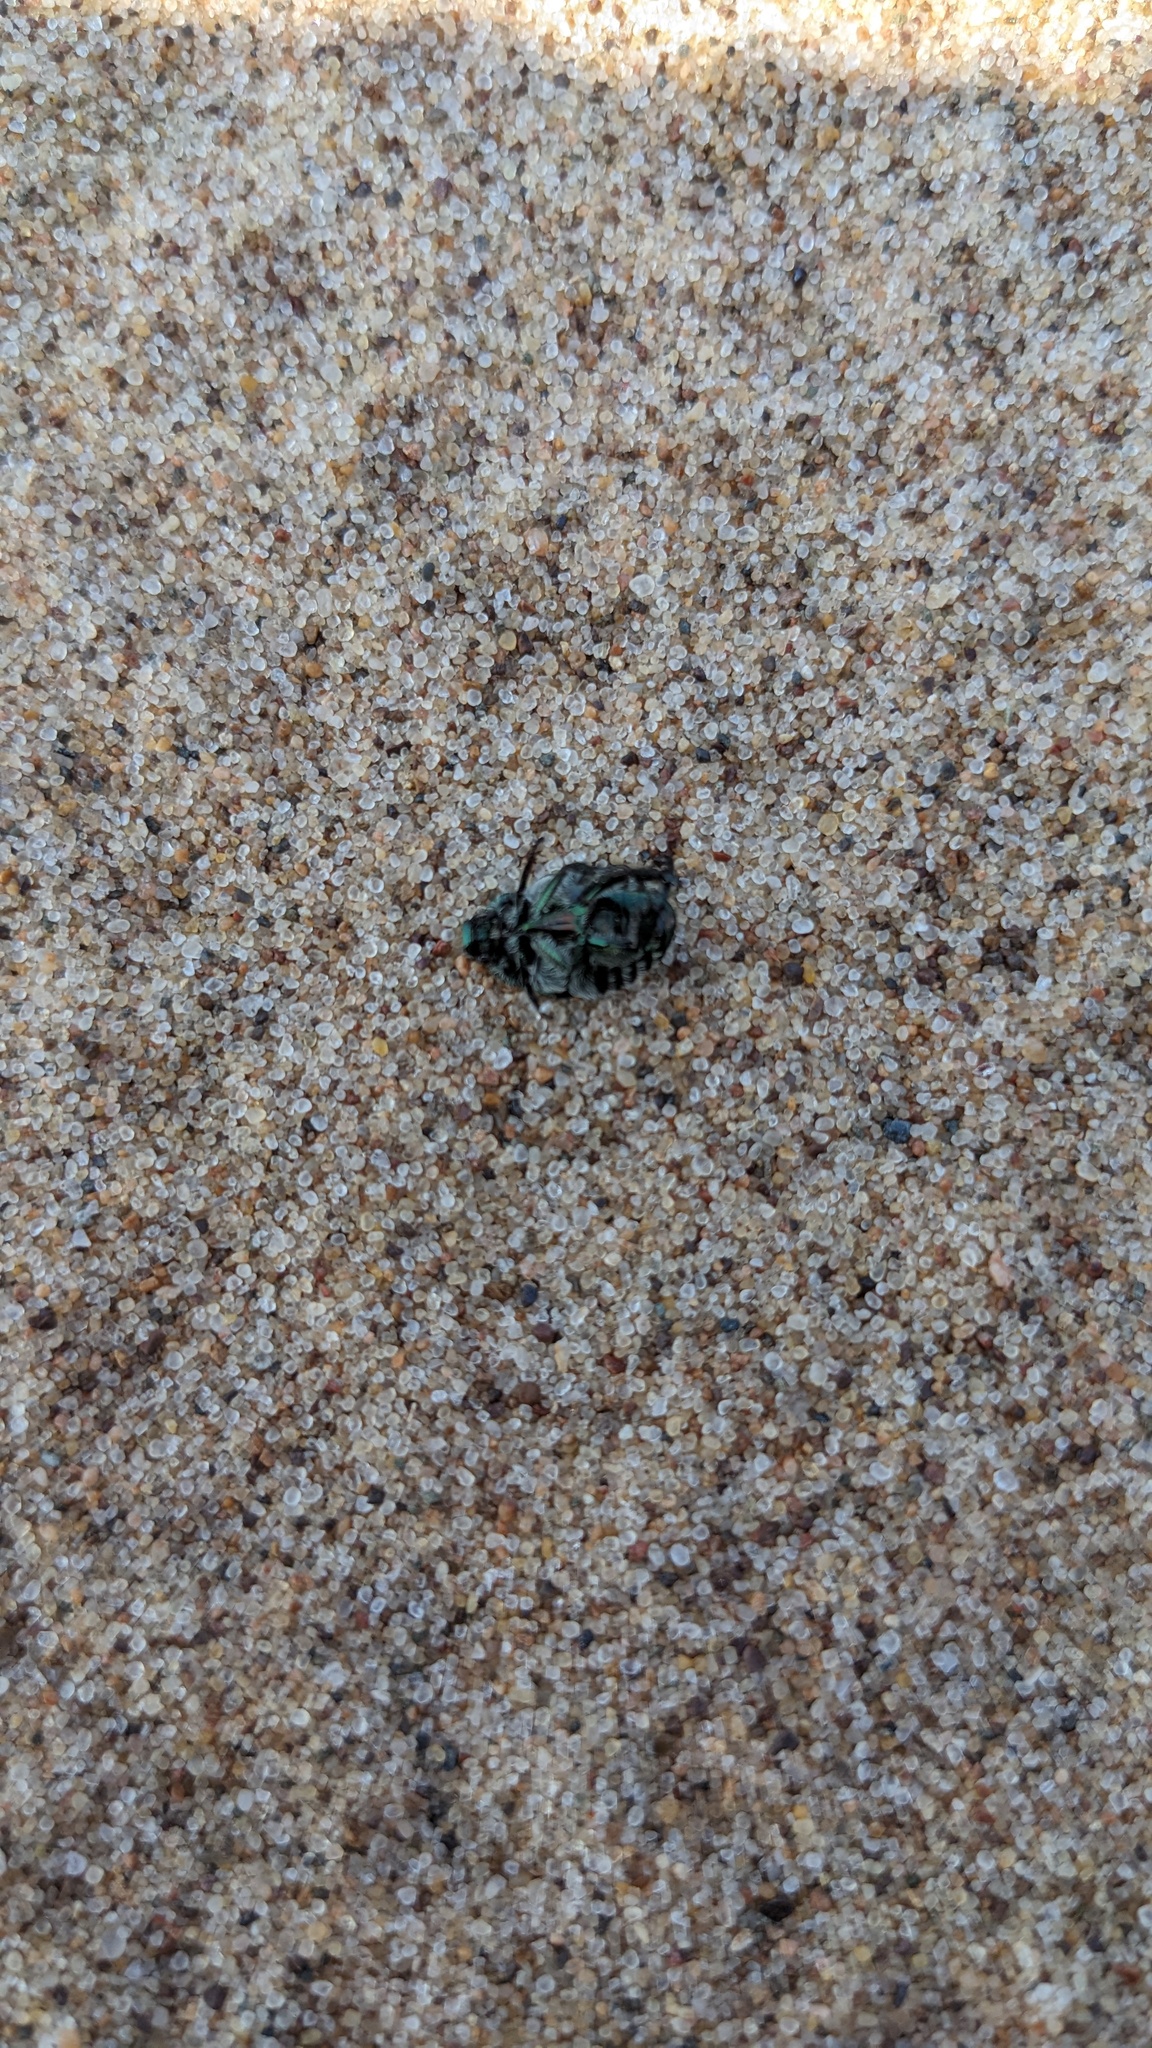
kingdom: Animalia
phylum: Arthropoda
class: Insecta
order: Coleoptera
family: Scarabaeidae
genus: Popillia
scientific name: Popillia japonica
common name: Japanese beetle
